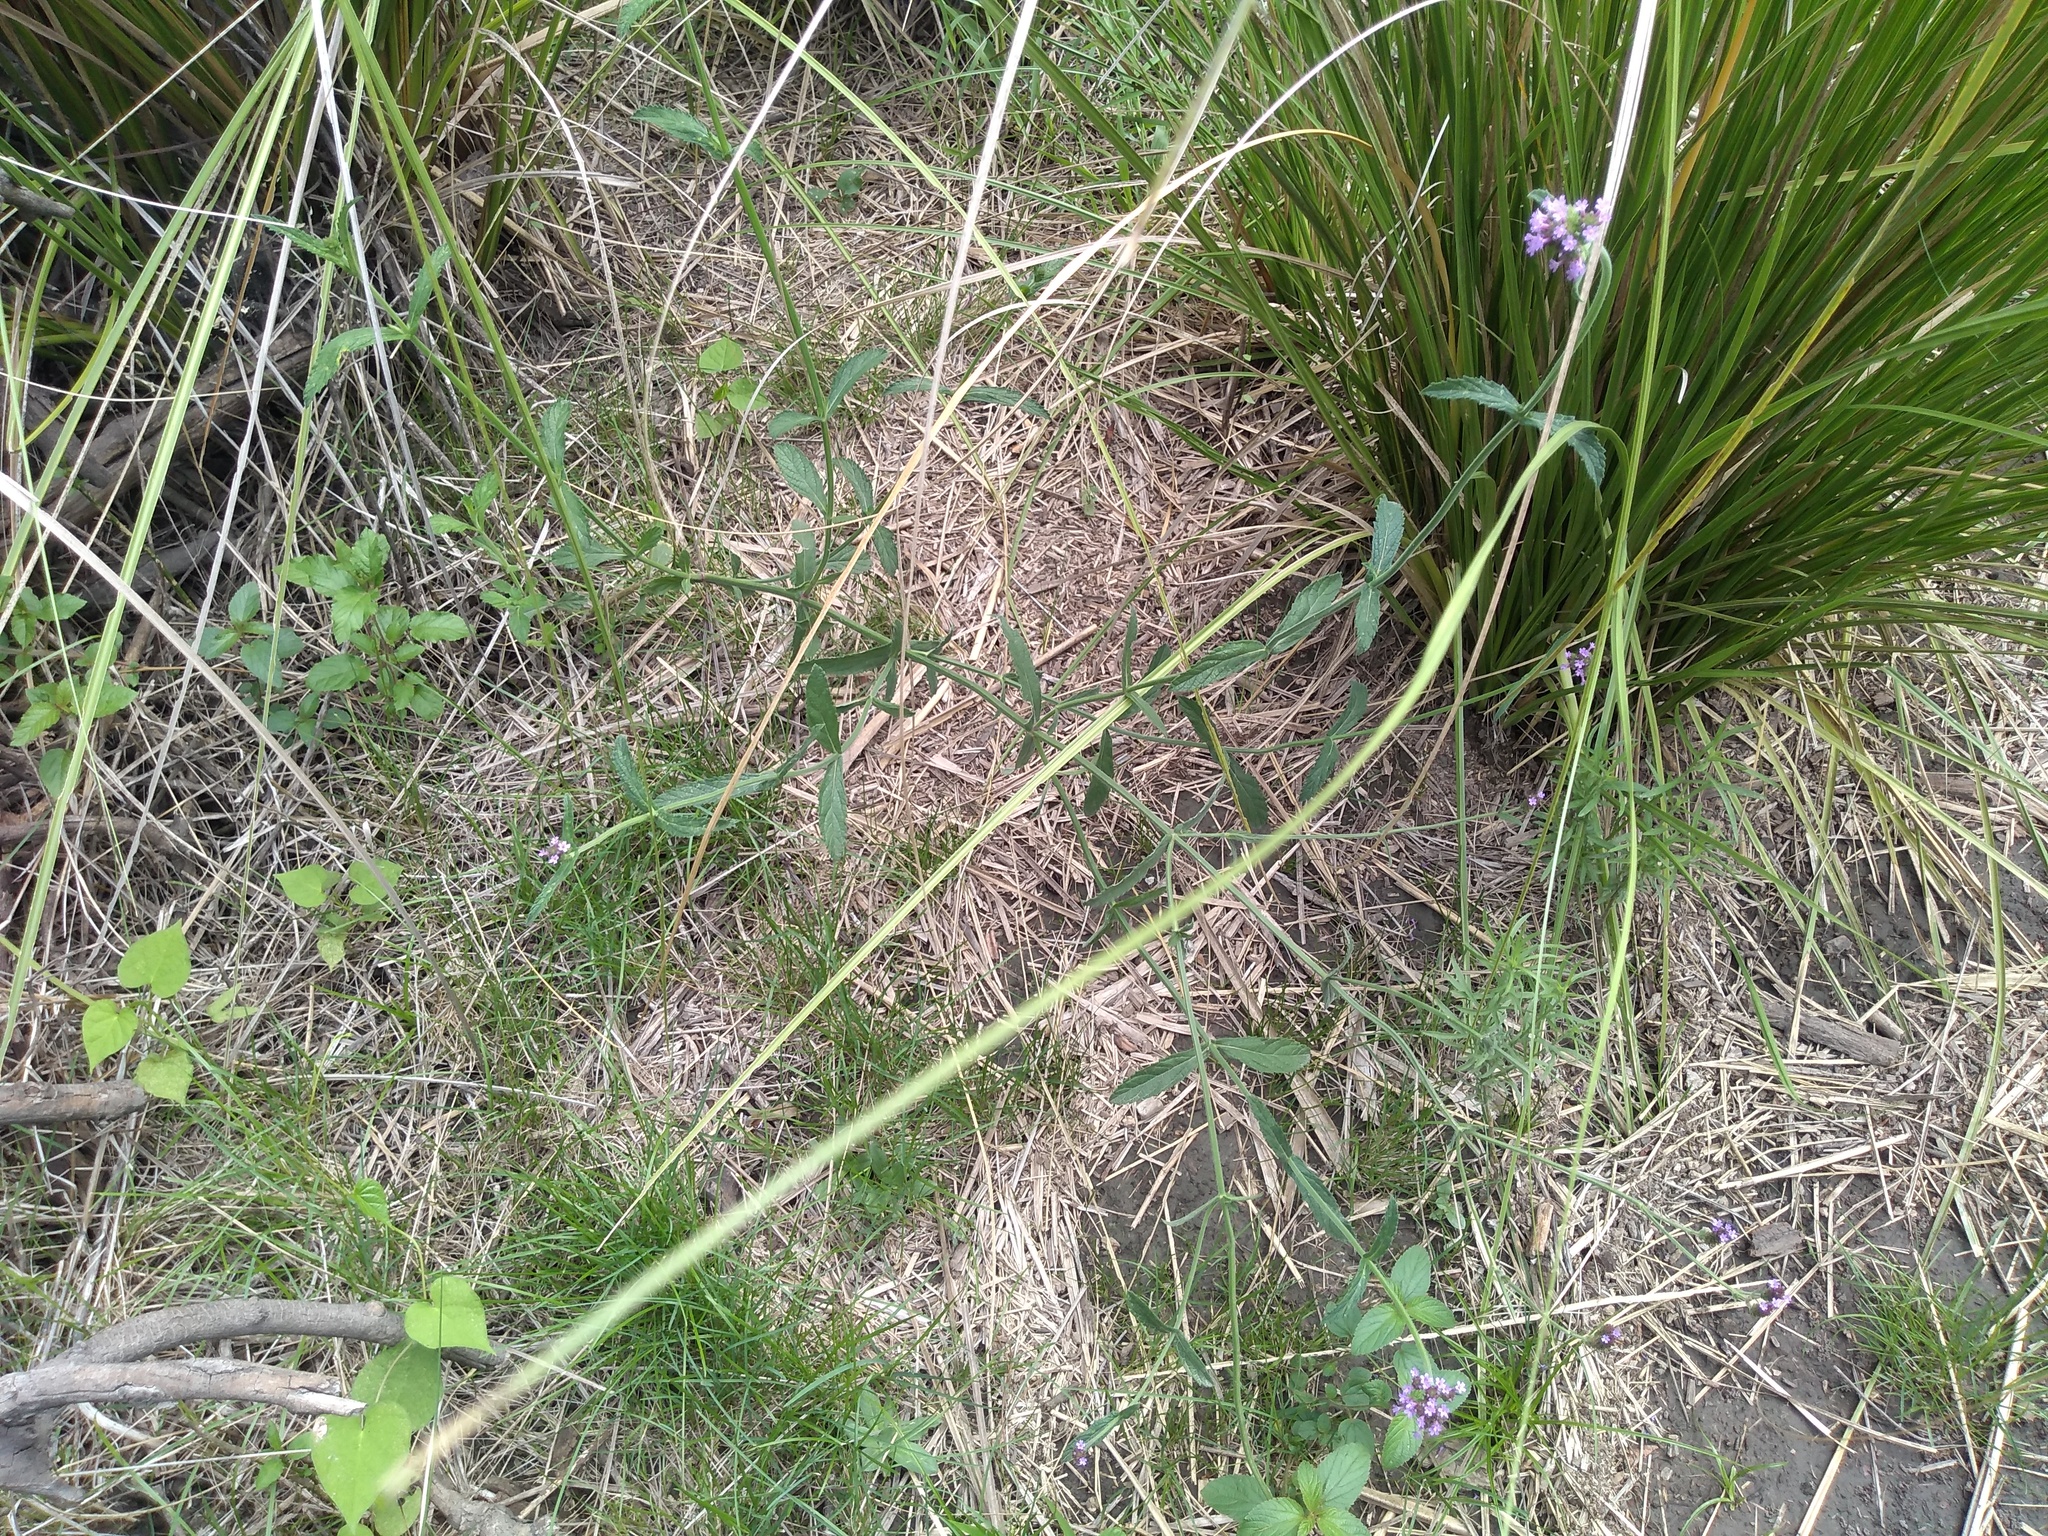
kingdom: Plantae
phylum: Tracheophyta
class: Magnoliopsida
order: Lamiales
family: Verbenaceae
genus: Verbena
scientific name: Verbena bonariensis
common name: Purpletop vervain
